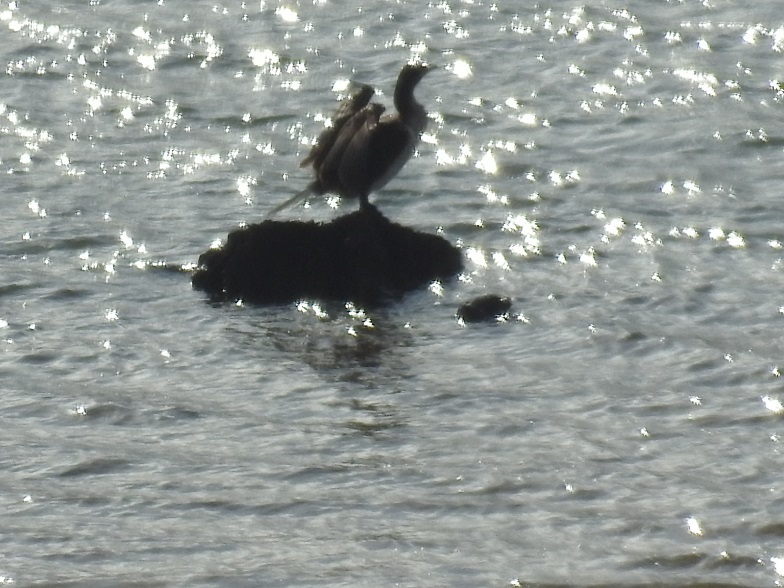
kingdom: Animalia
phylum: Chordata
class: Aves
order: Suliformes
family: Phalacrocoracidae
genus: Phalacrocorax
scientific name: Phalacrocorax carbo
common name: Great cormorant
